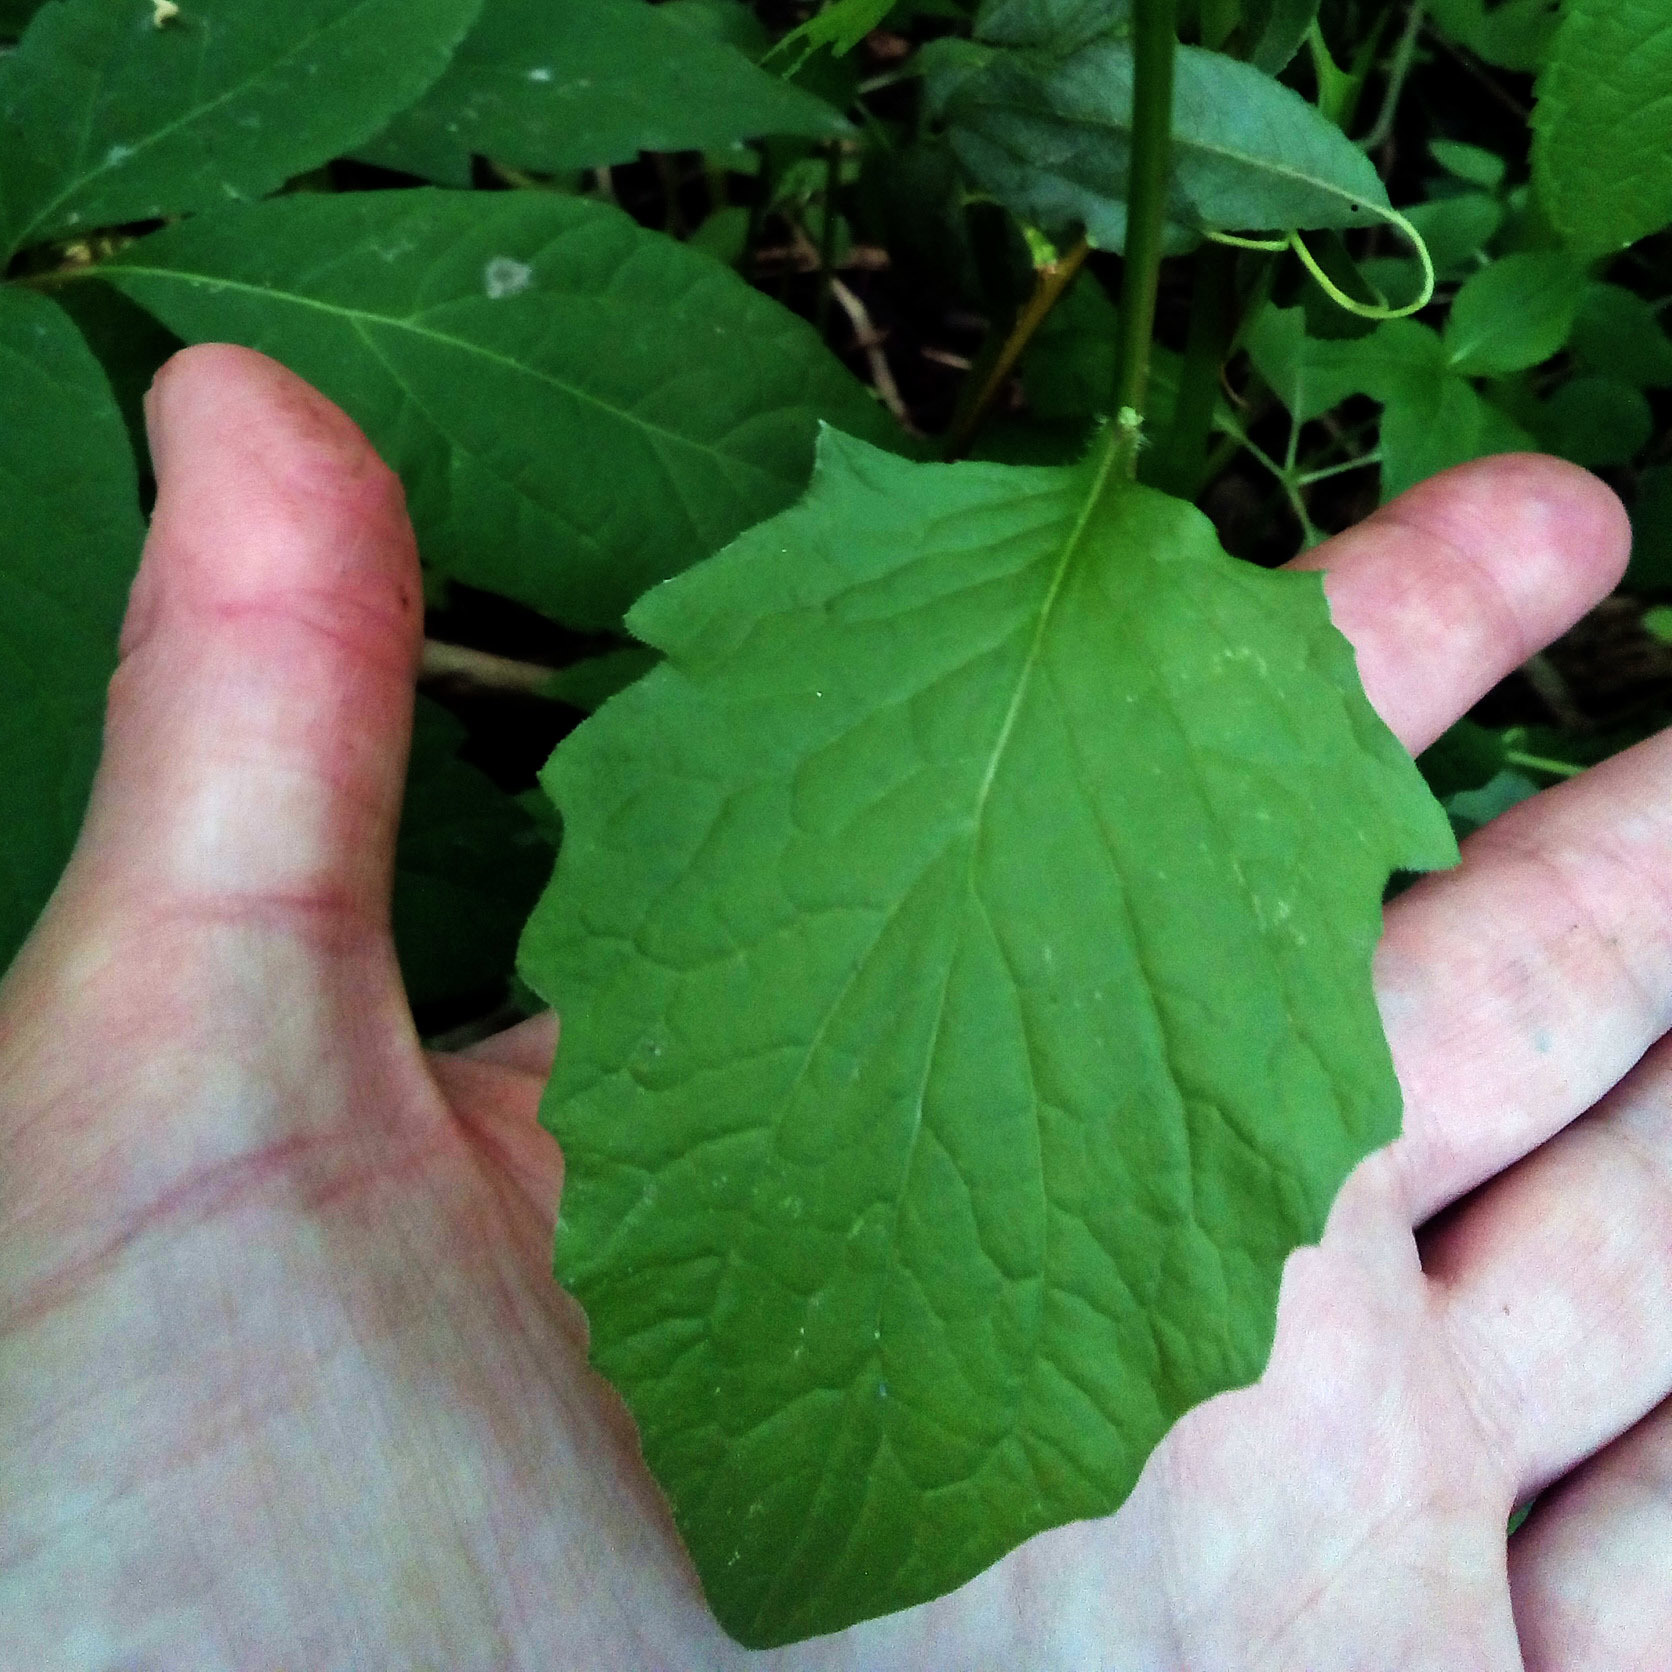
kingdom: Plantae
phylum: Tracheophyta
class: Magnoliopsida
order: Asterales
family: Asteraceae
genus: Lapsana
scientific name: Lapsana communis
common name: Nipplewort
